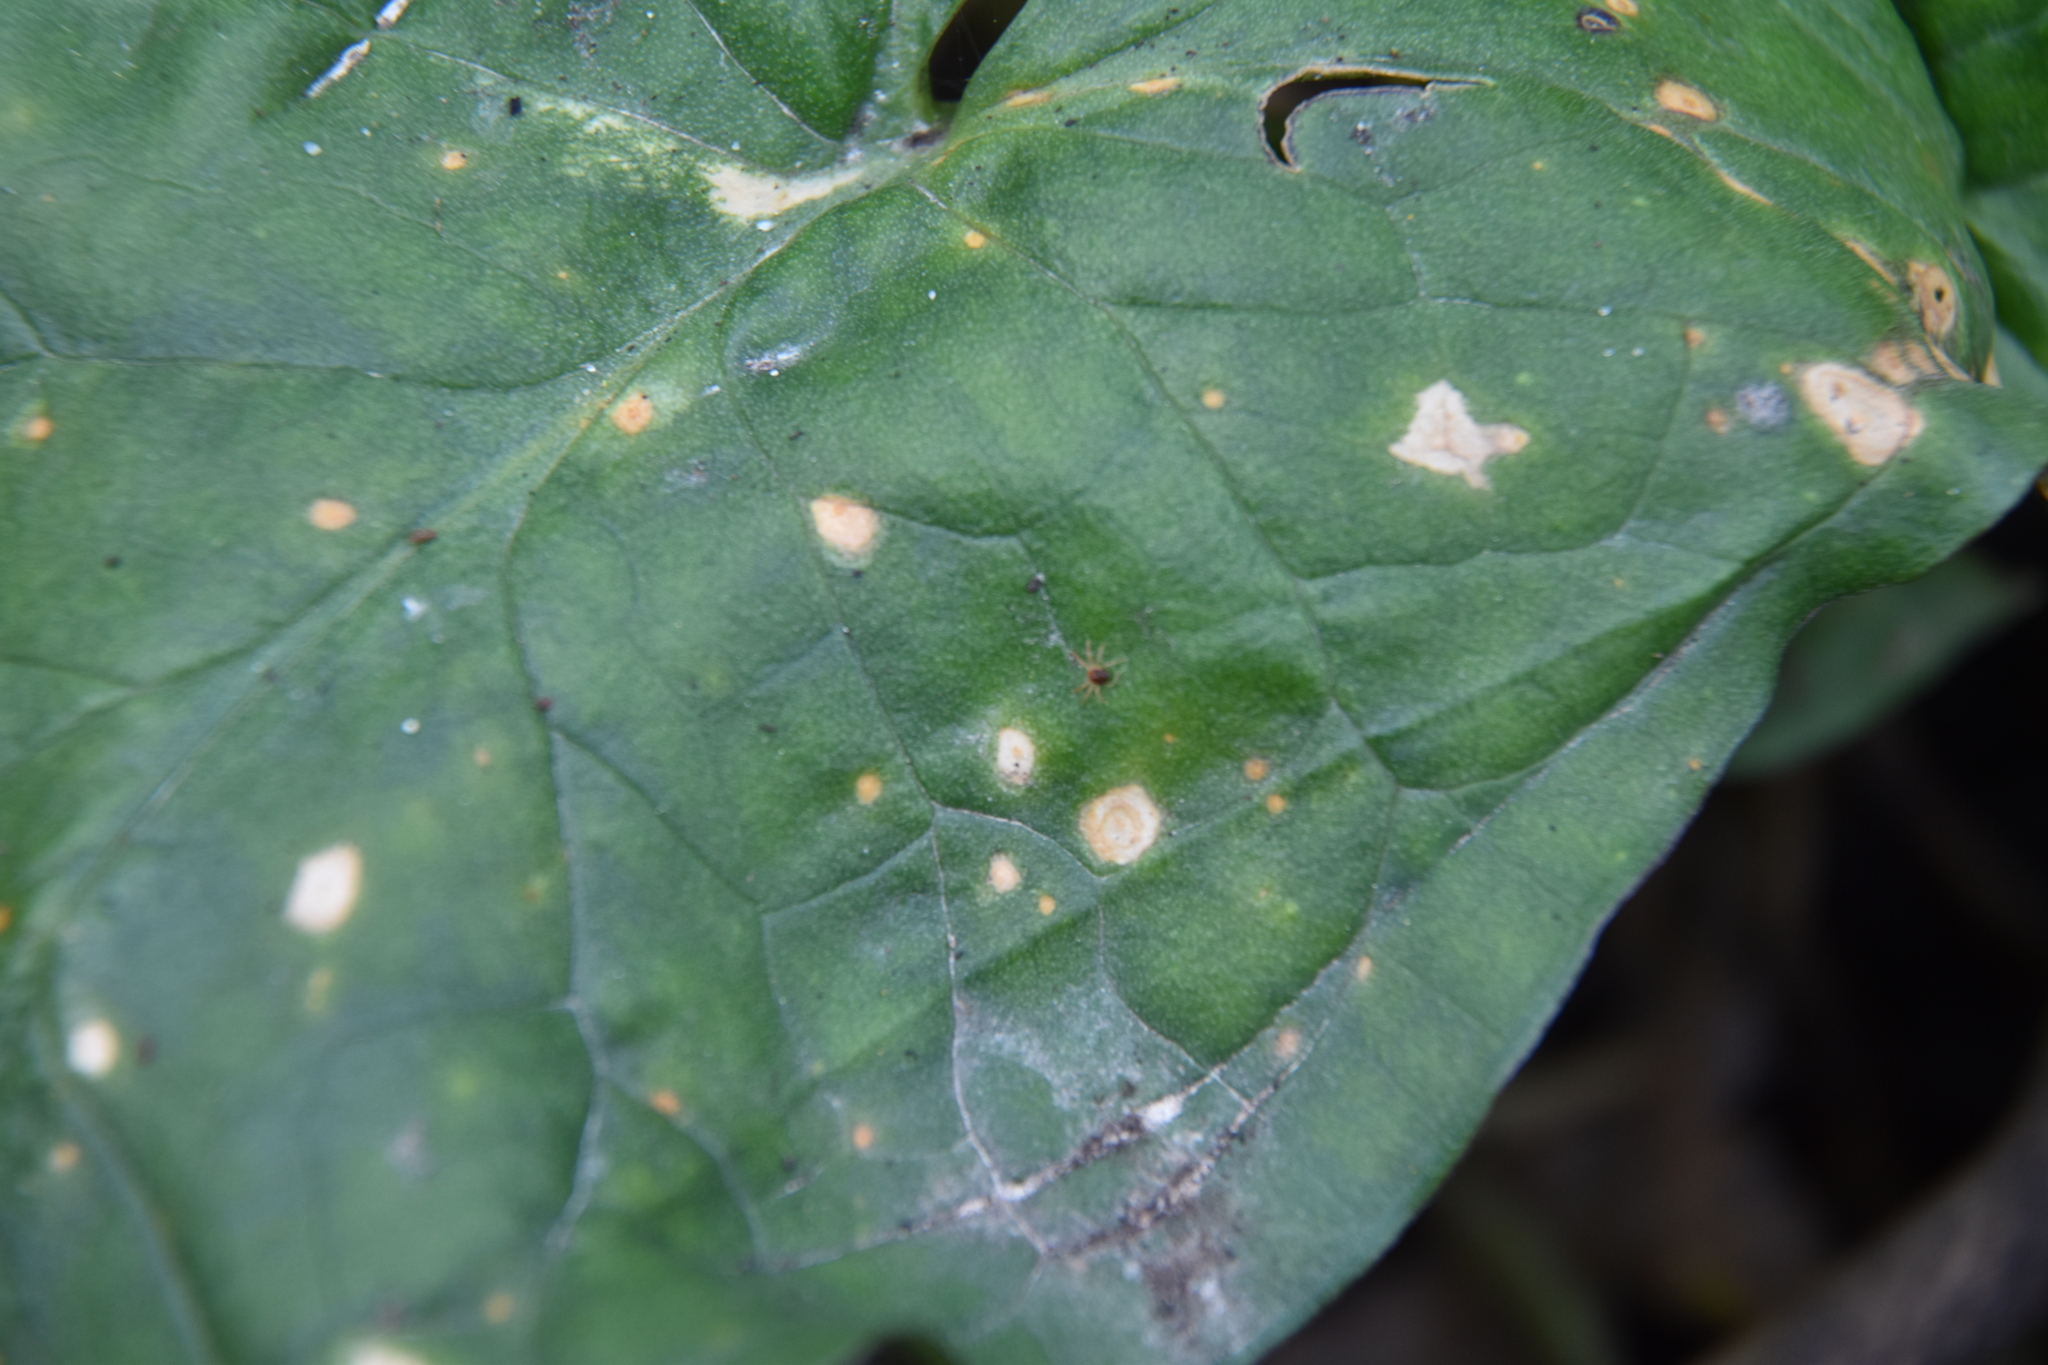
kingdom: Fungi
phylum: Ascomycota
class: Sordariomycetes
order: Glomerellales
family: Plectosphaerellaceae
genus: Spermosporina
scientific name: Spermosporina aricola
